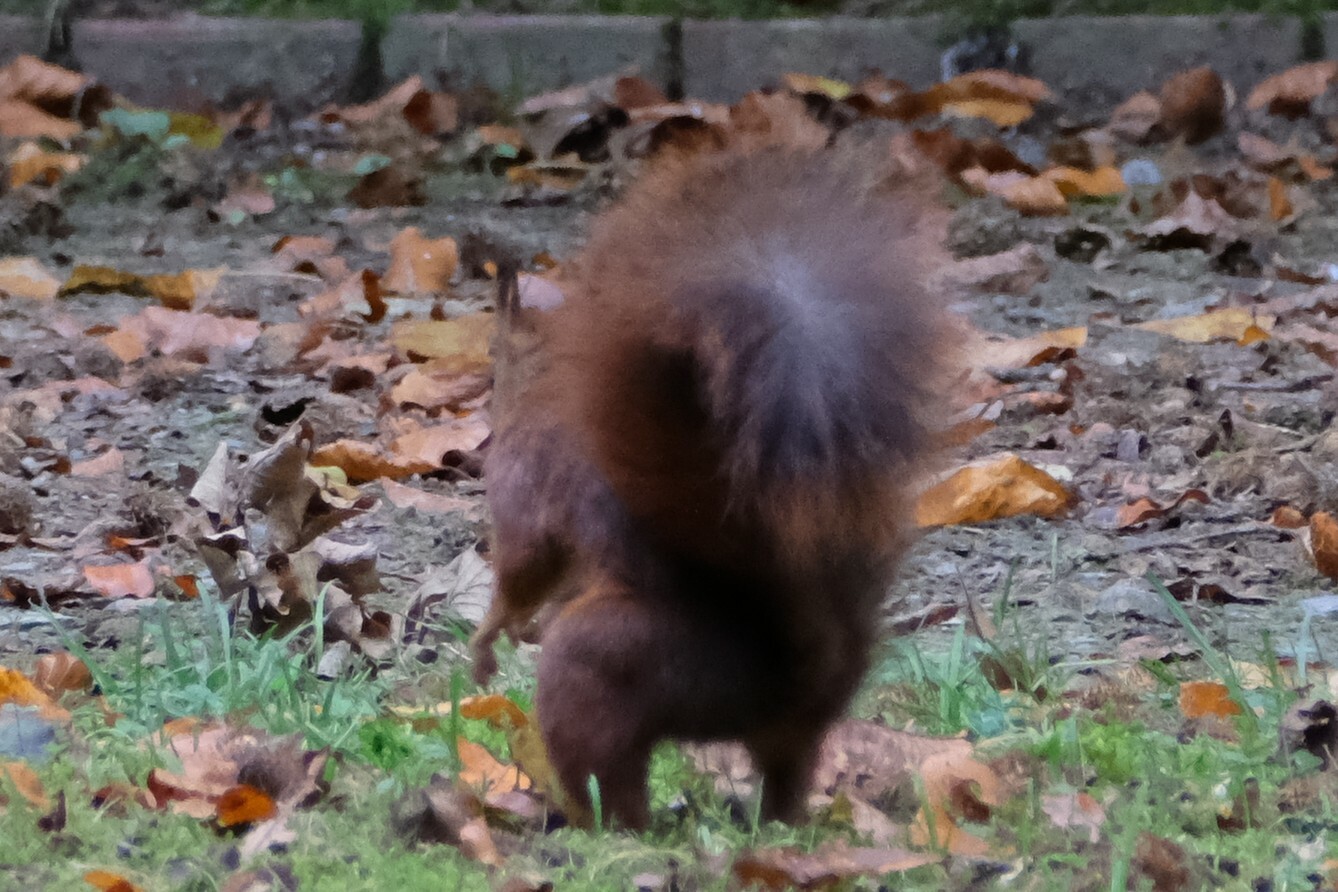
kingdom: Animalia
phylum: Chordata
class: Mammalia
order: Rodentia
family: Sciuridae
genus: Sciurus
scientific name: Sciurus vulgaris
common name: Eurasian red squirrel
